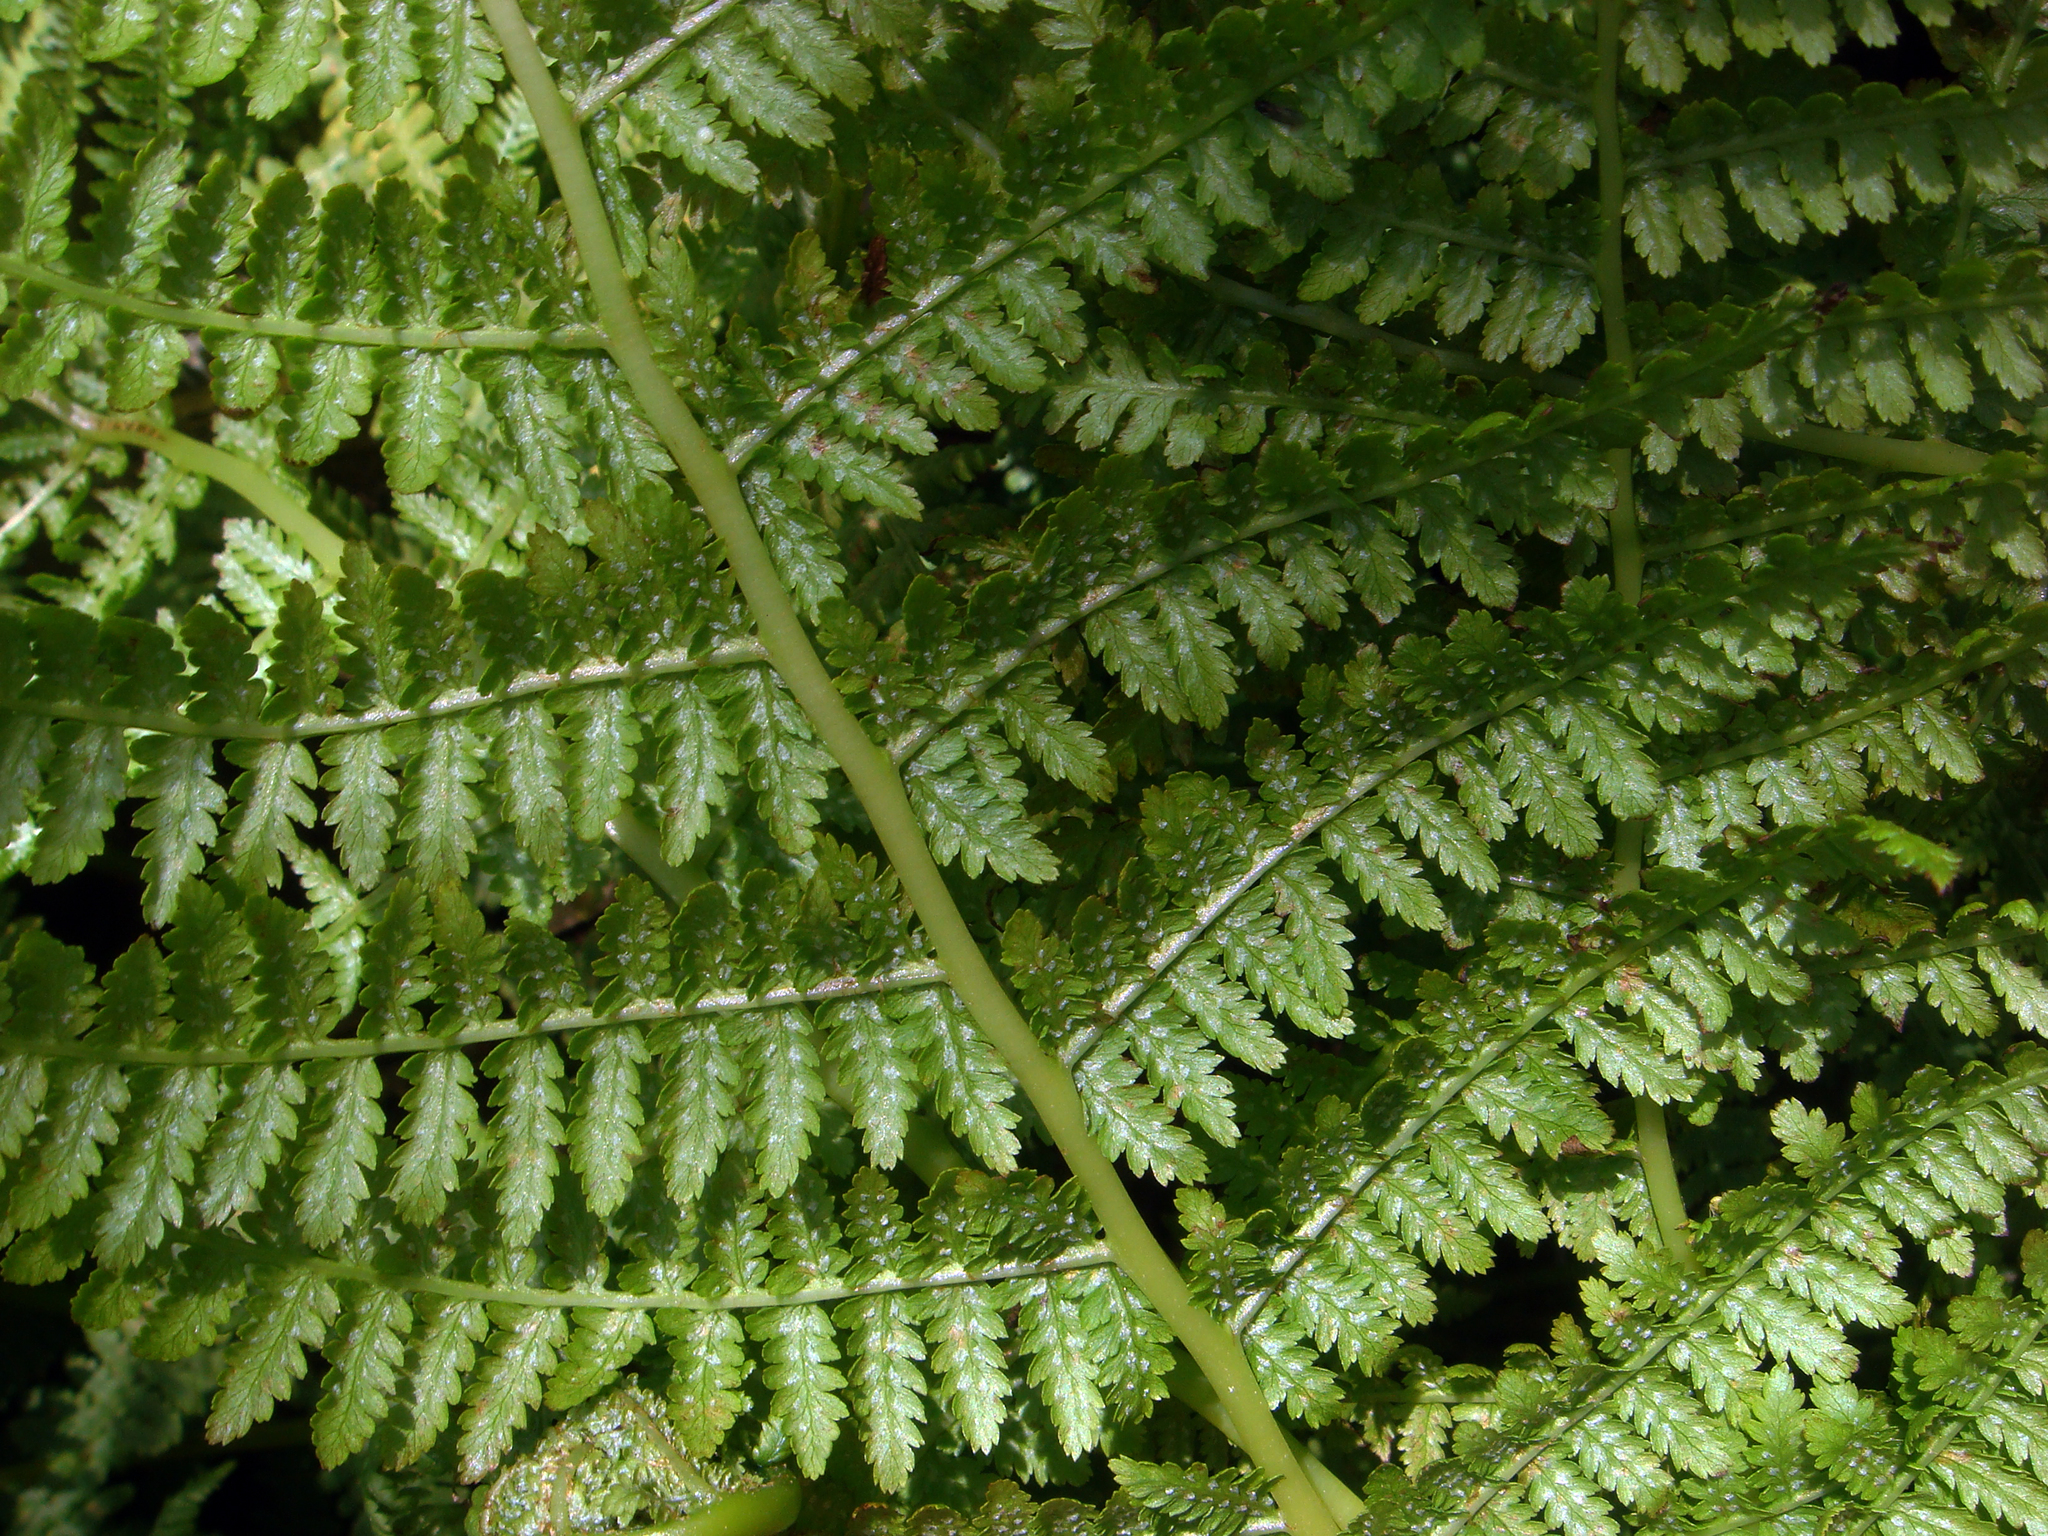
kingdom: Plantae
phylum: Tracheophyta
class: Polypodiopsida
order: Polypodiales
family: Athyriaceae
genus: Athyrium
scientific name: Athyrium filix-femina
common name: Lady fern
